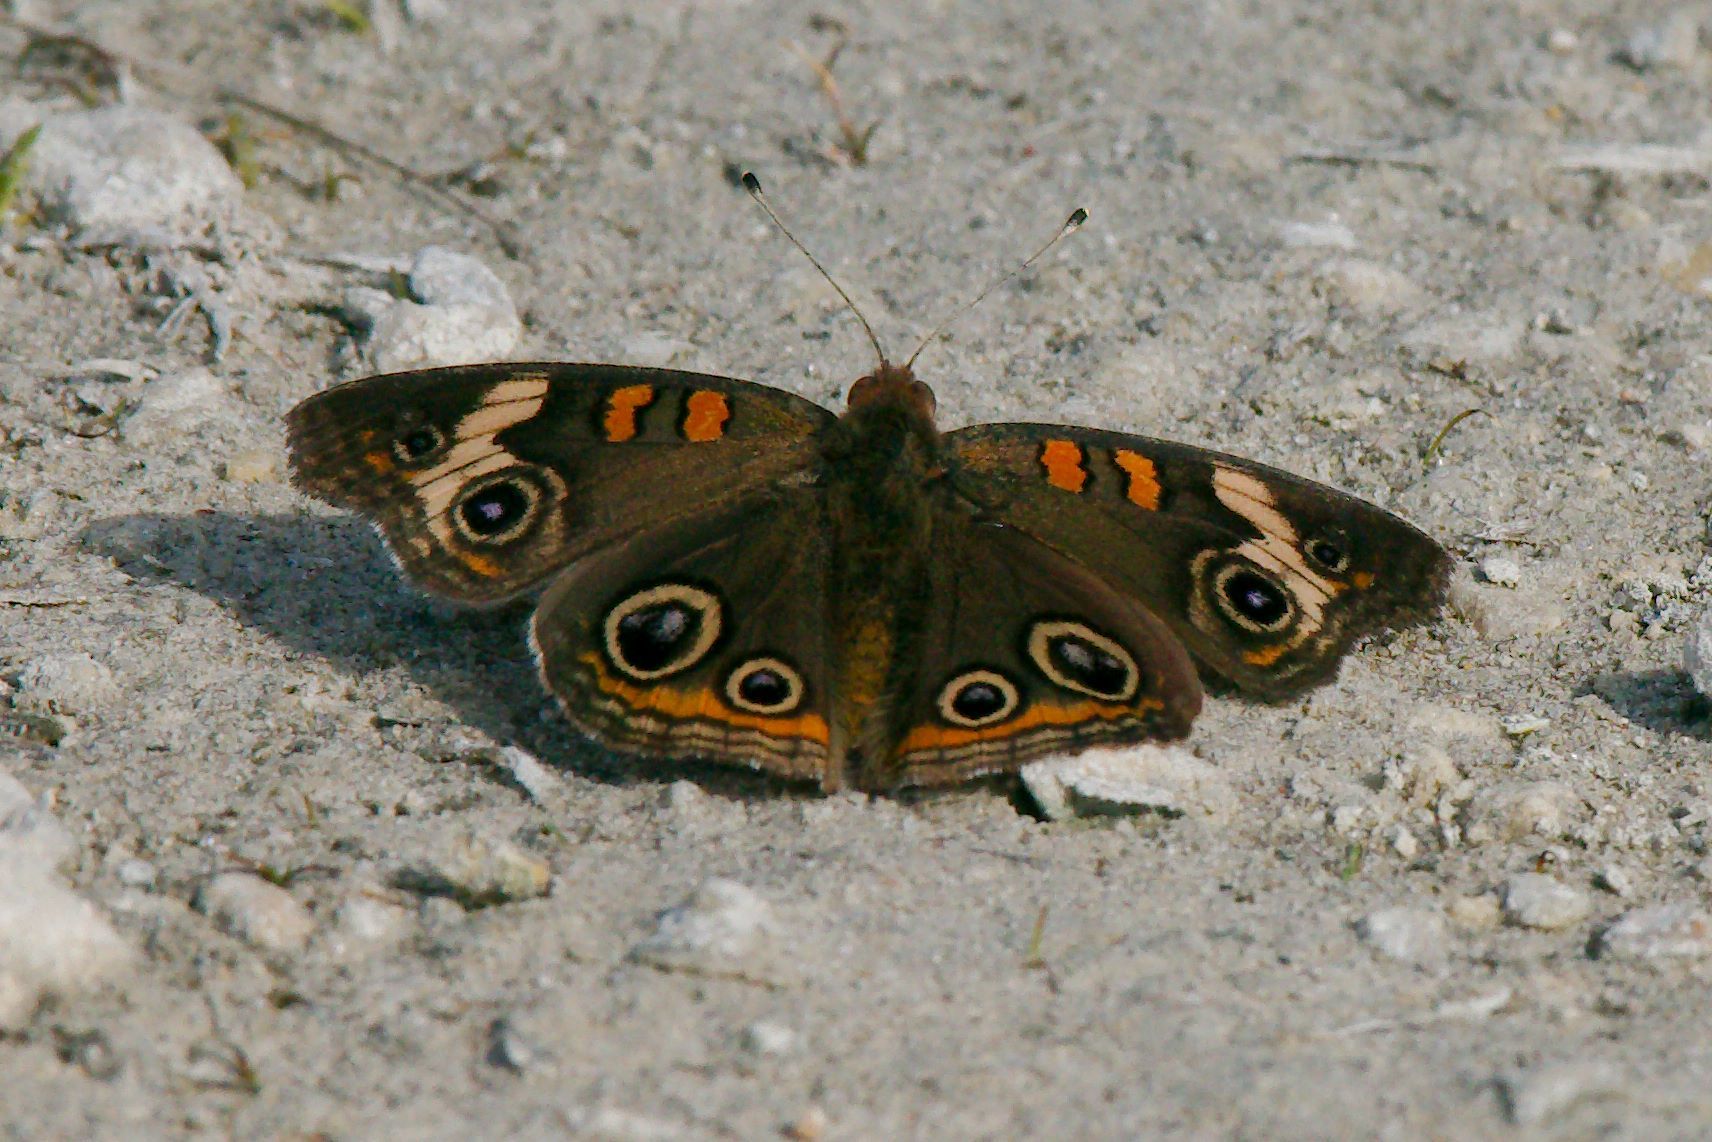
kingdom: Animalia
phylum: Arthropoda
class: Insecta
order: Lepidoptera
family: Nymphalidae
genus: Junonia
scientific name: Junonia coenia
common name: Common buckeye
